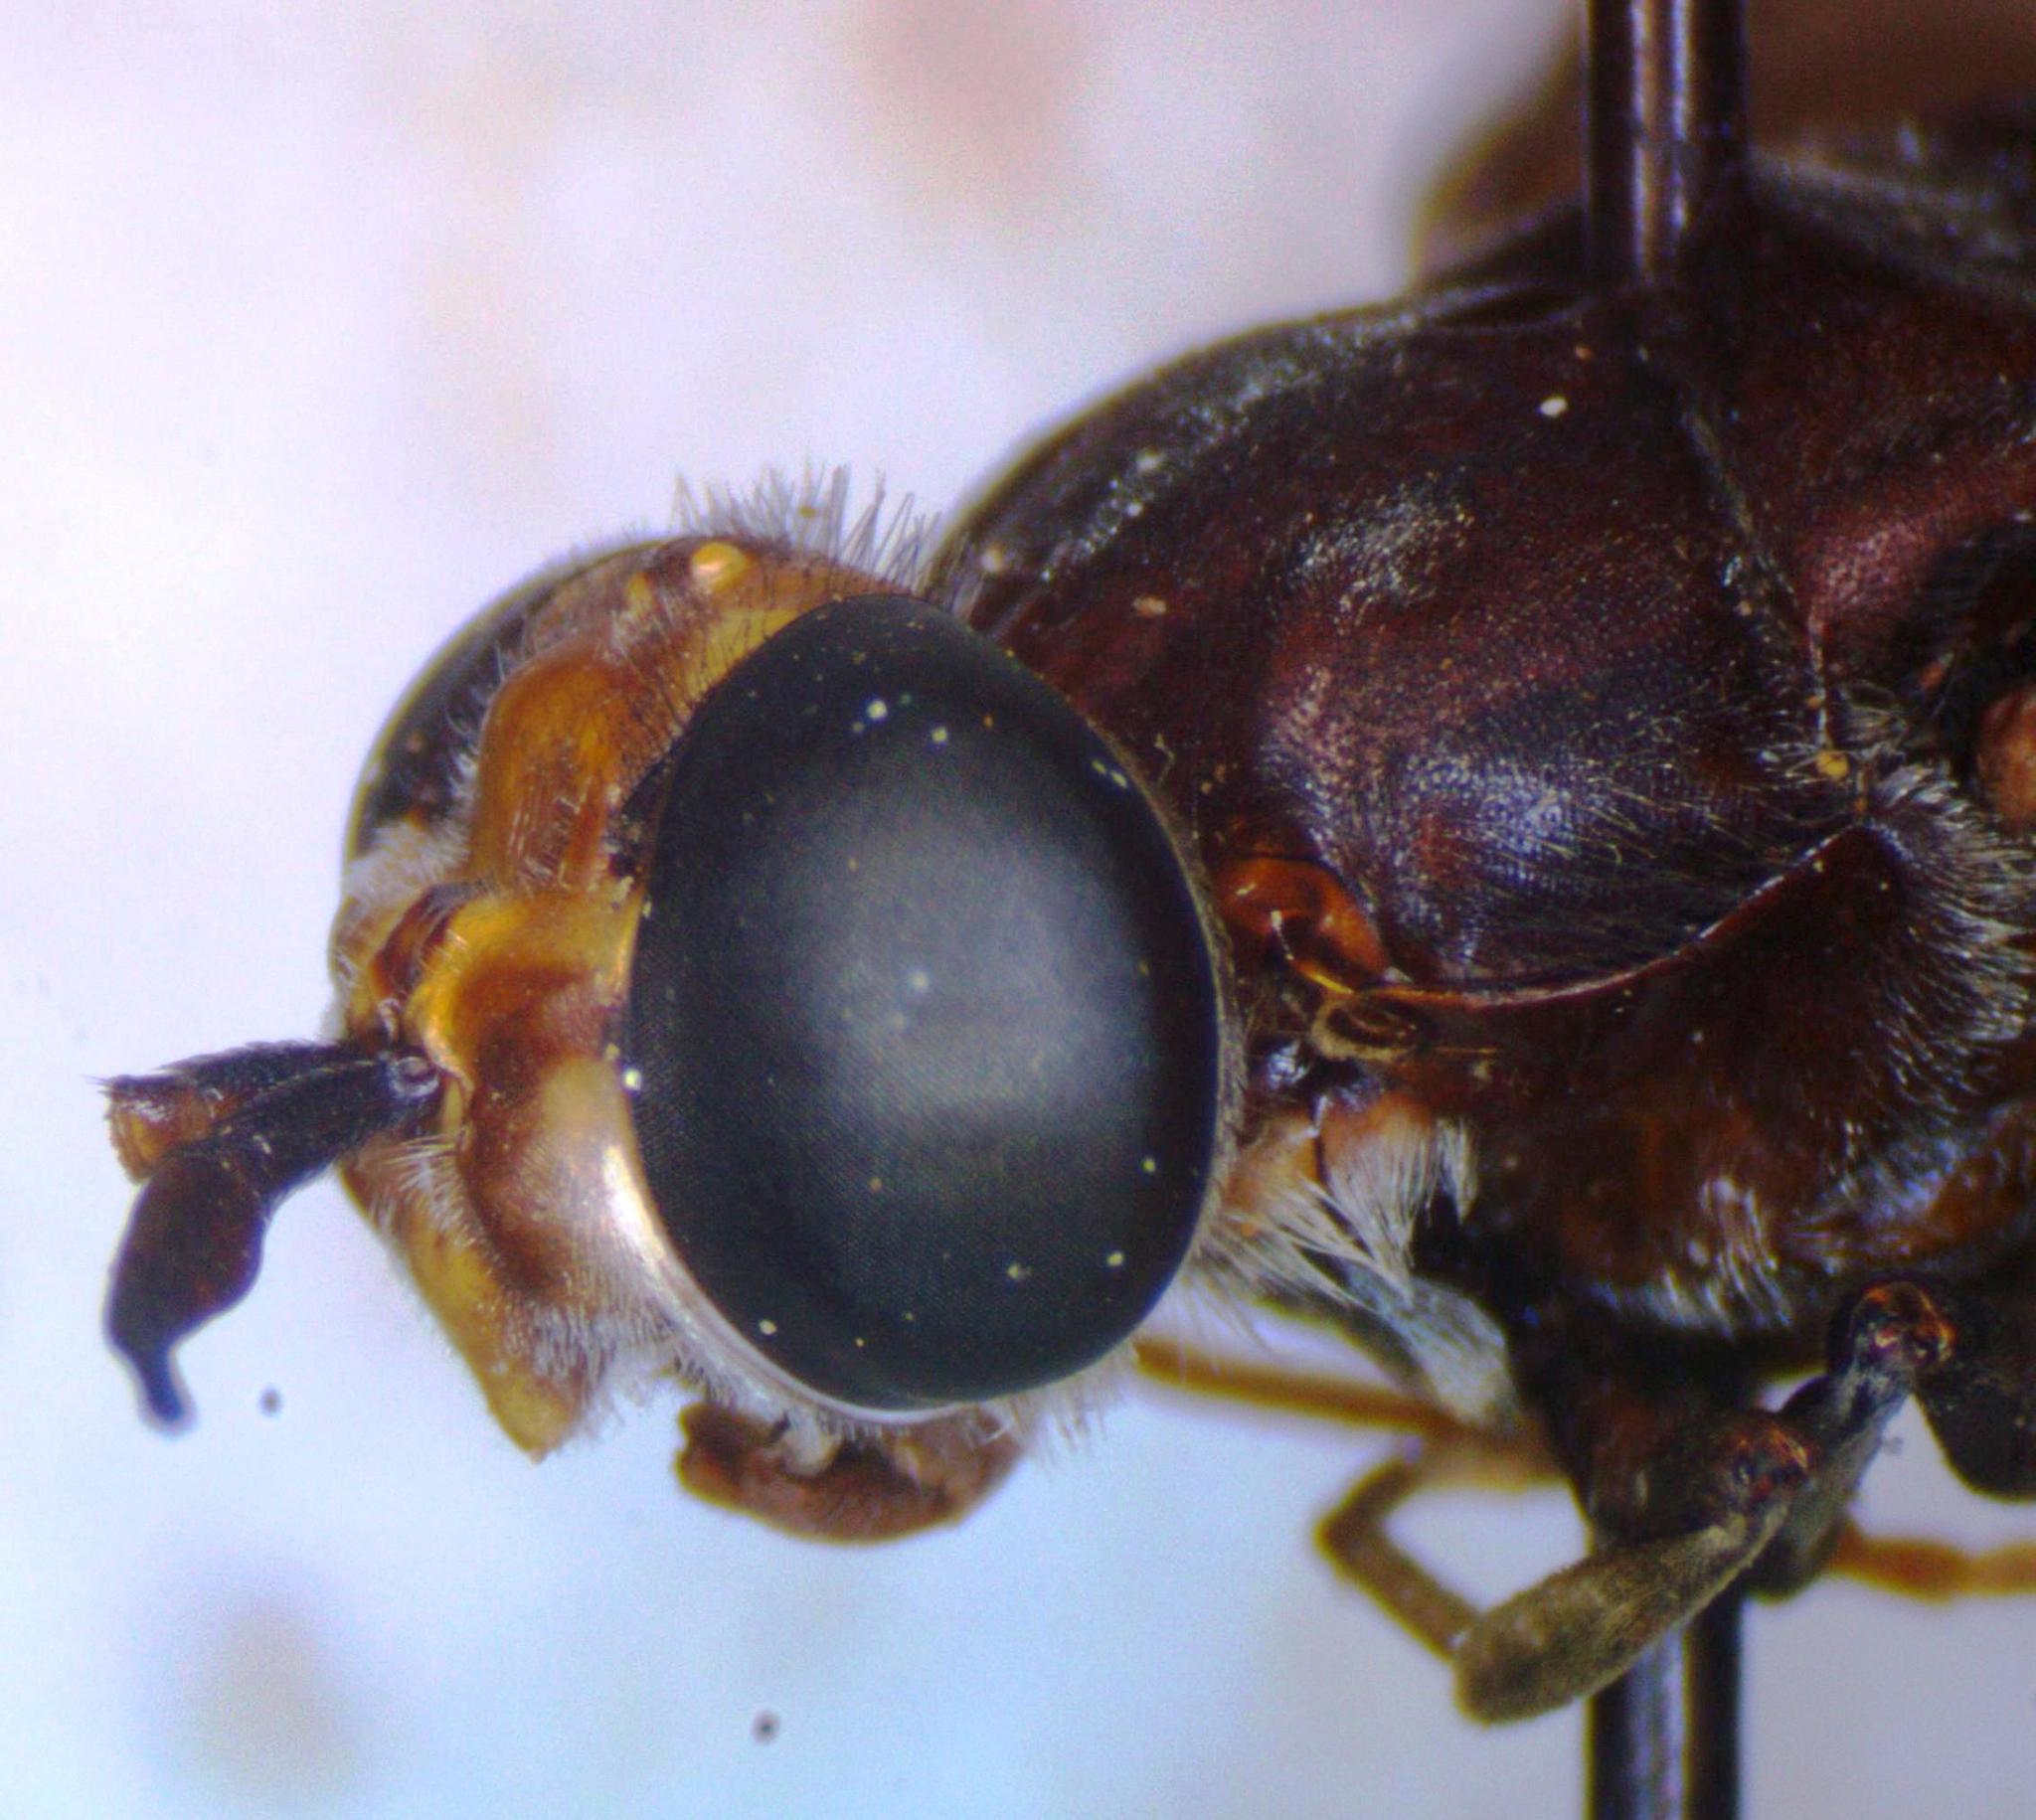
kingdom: Animalia
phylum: Arthropoda
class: Insecta
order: Diptera
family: Stratiomyidae
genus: Hermetia
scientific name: Hermetia illucens
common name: Black soldier fly
